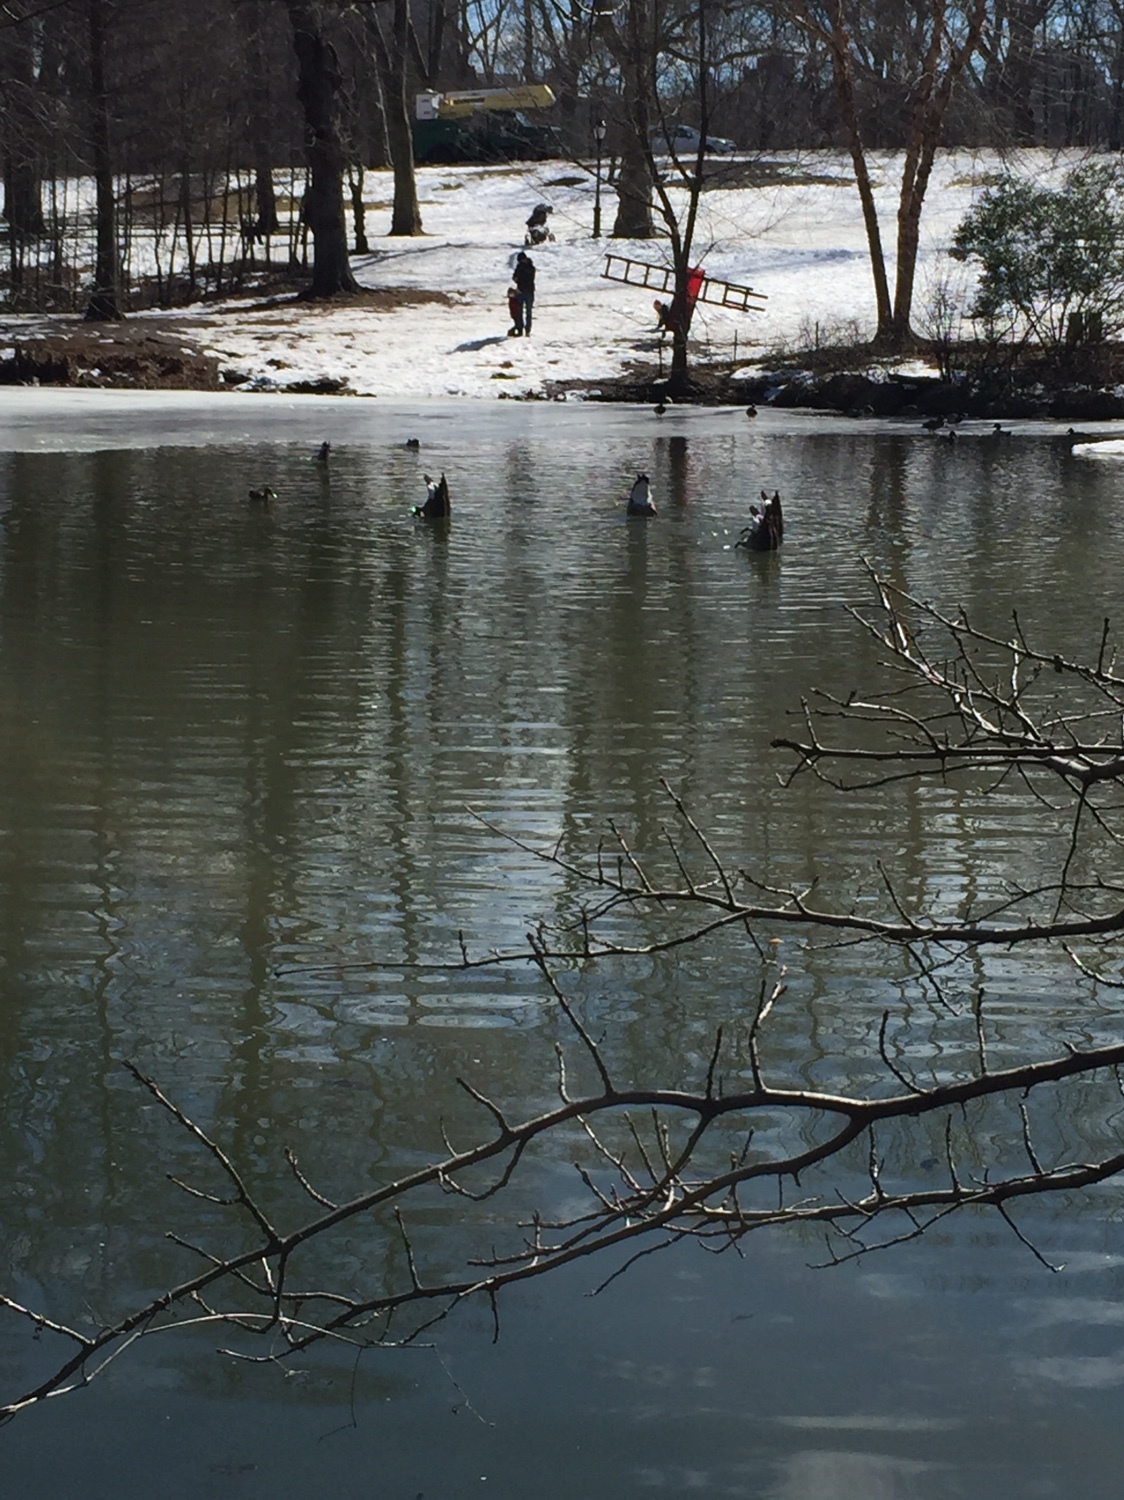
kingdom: Animalia
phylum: Chordata
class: Aves
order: Anseriformes
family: Anatidae
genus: Branta
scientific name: Branta canadensis
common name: Canada goose
